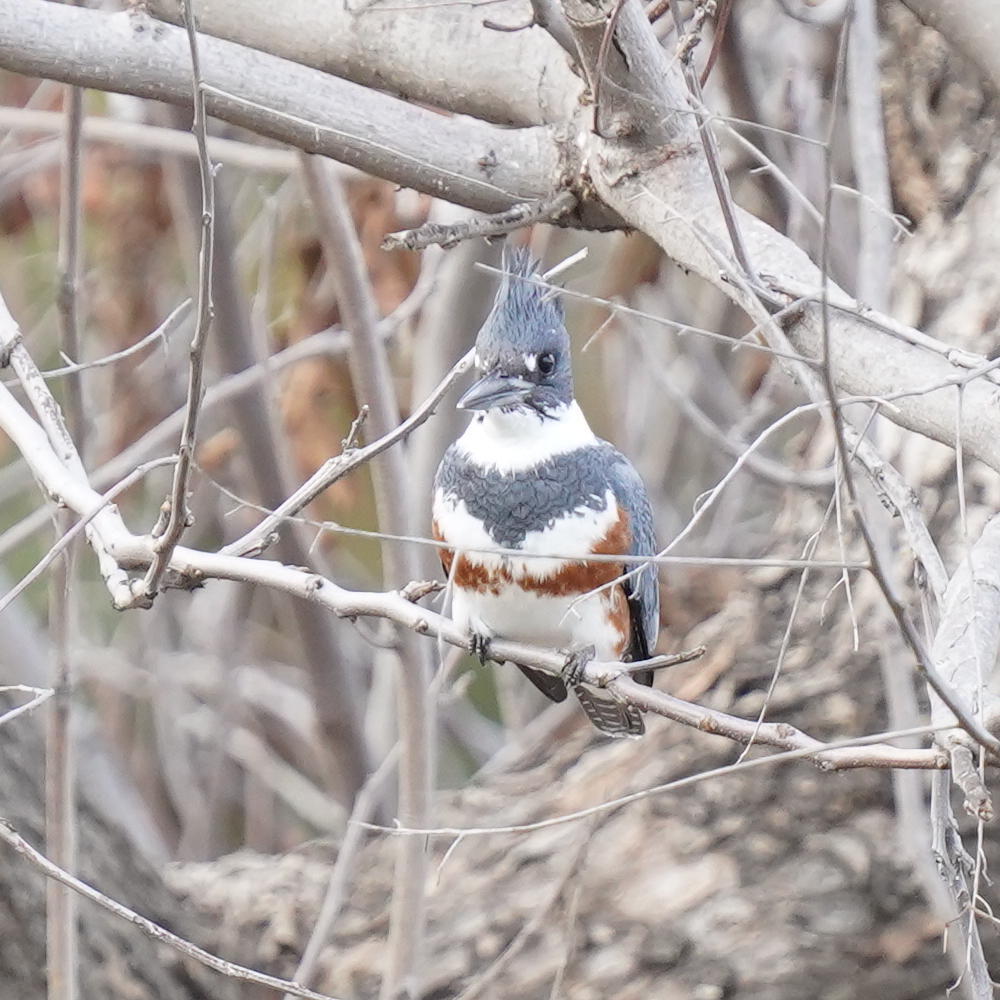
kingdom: Animalia
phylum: Chordata
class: Aves
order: Coraciiformes
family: Alcedinidae
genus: Megaceryle
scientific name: Megaceryle alcyon
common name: Belted kingfisher
